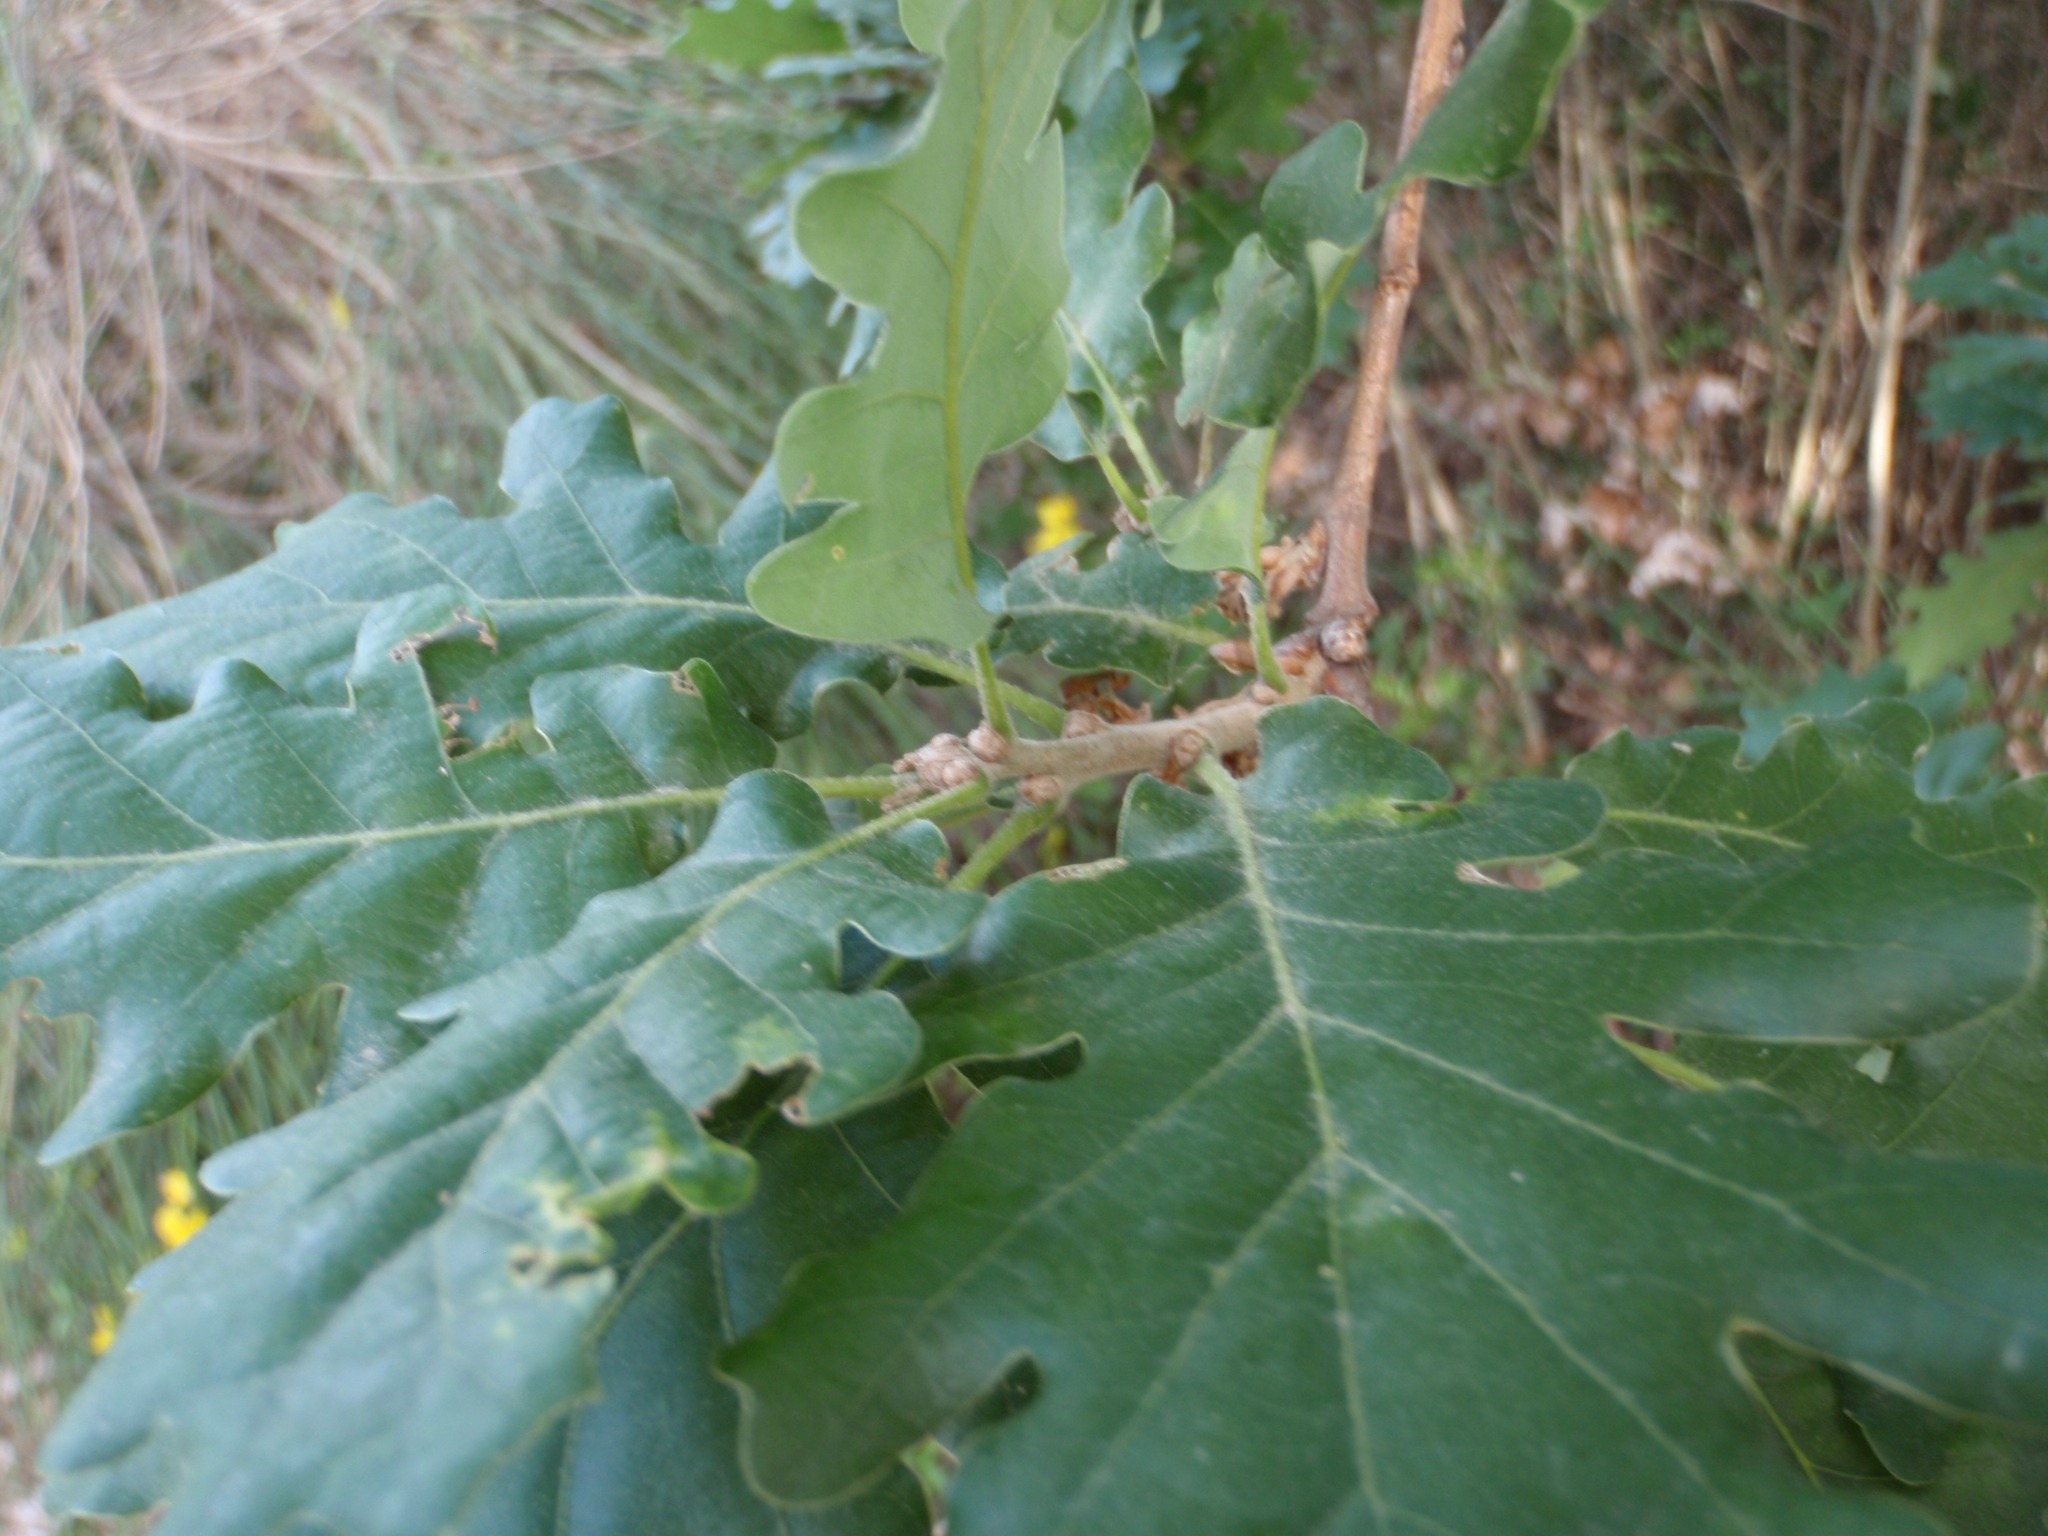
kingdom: Plantae
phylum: Tracheophyta
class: Magnoliopsida
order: Fagales
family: Fagaceae
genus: Quercus
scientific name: Quercus pubescens
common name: Downy oak
